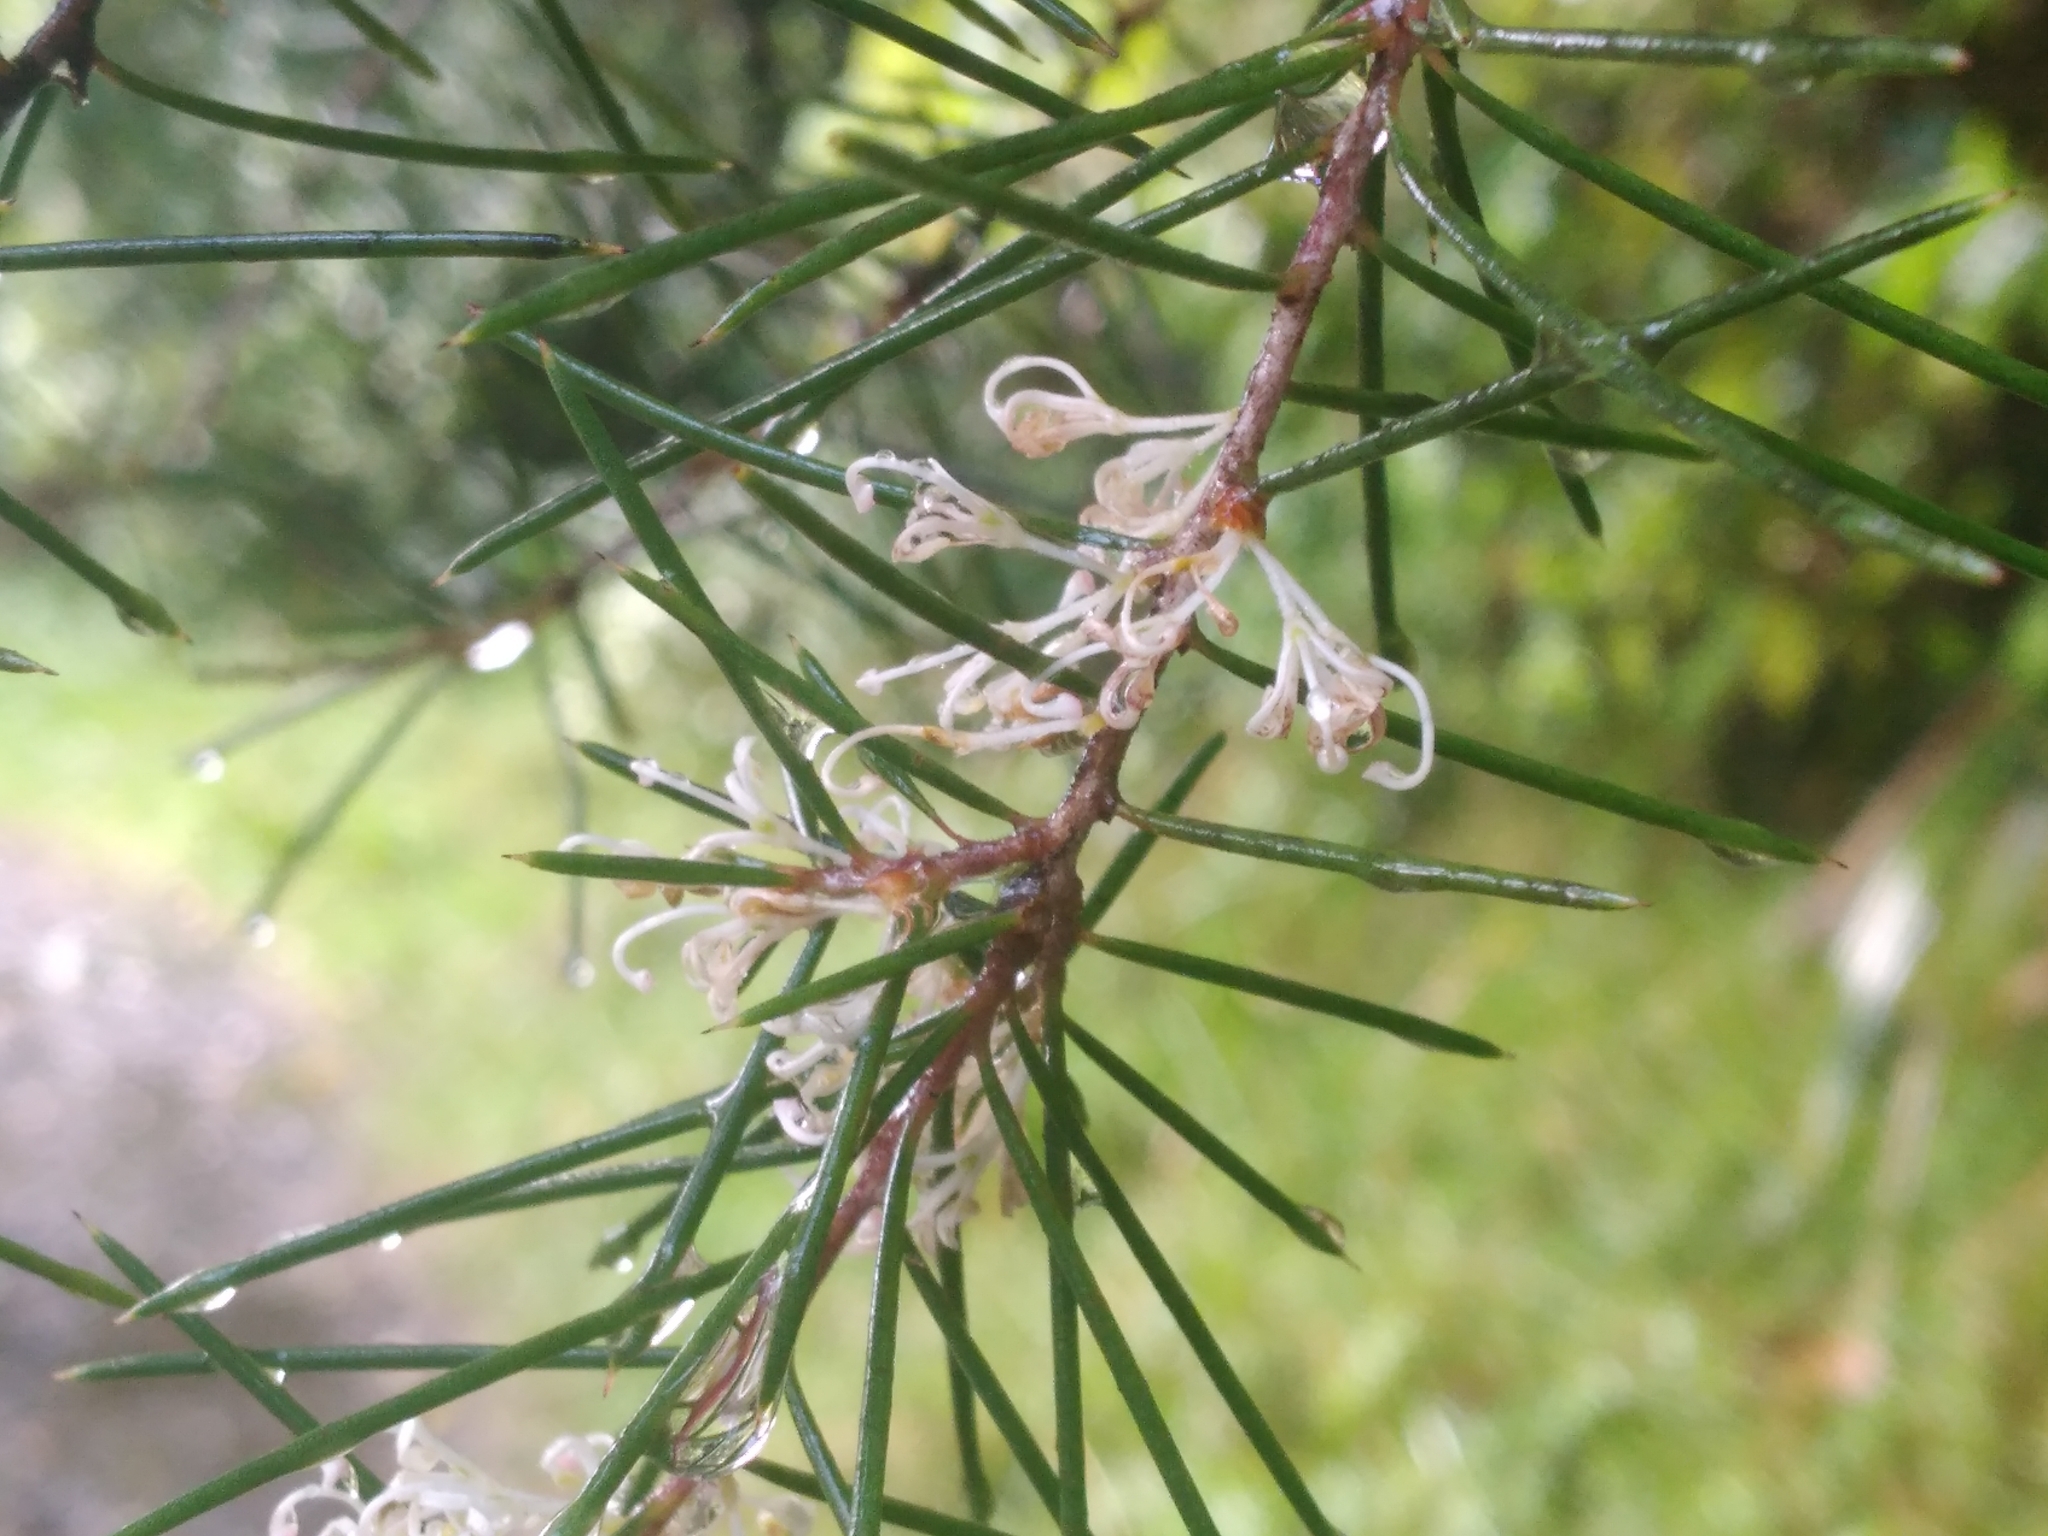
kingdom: Plantae
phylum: Tracheophyta
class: Magnoliopsida
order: Proteales
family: Proteaceae
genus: Hakea
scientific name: Hakea sericea
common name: Needle bush
